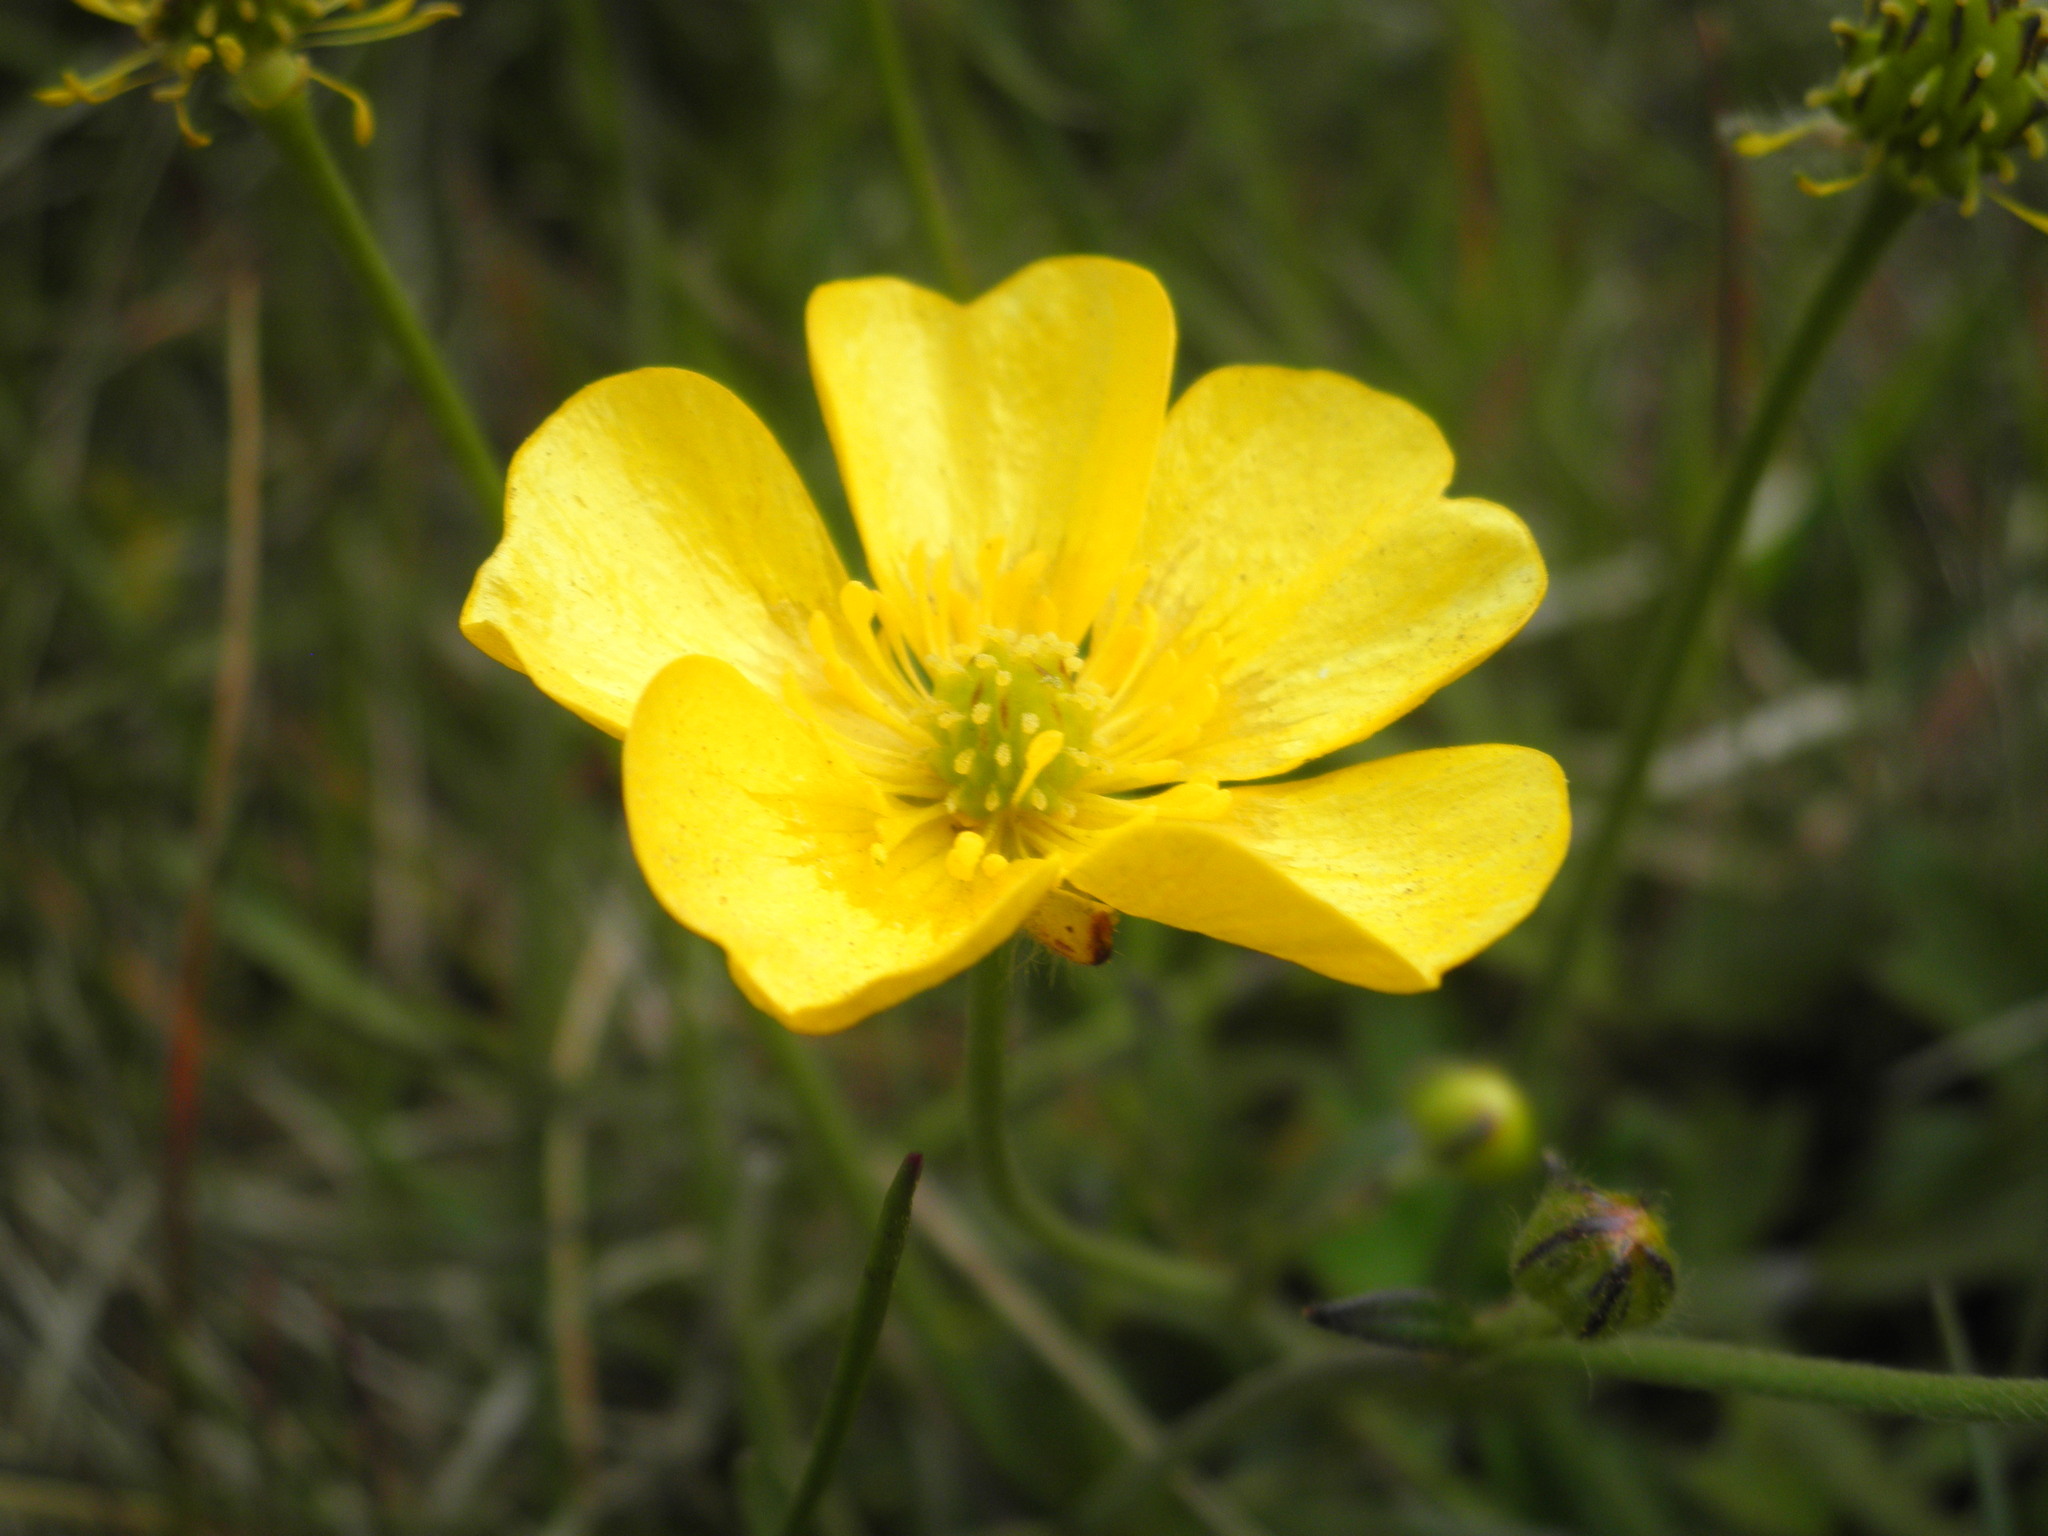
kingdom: Plantae
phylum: Tracheophyta
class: Magnoliopsida
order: Ranunculales
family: Ranunculaceae
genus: Ranunculus
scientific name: Ranunculus acris
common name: Meadow buttercup
